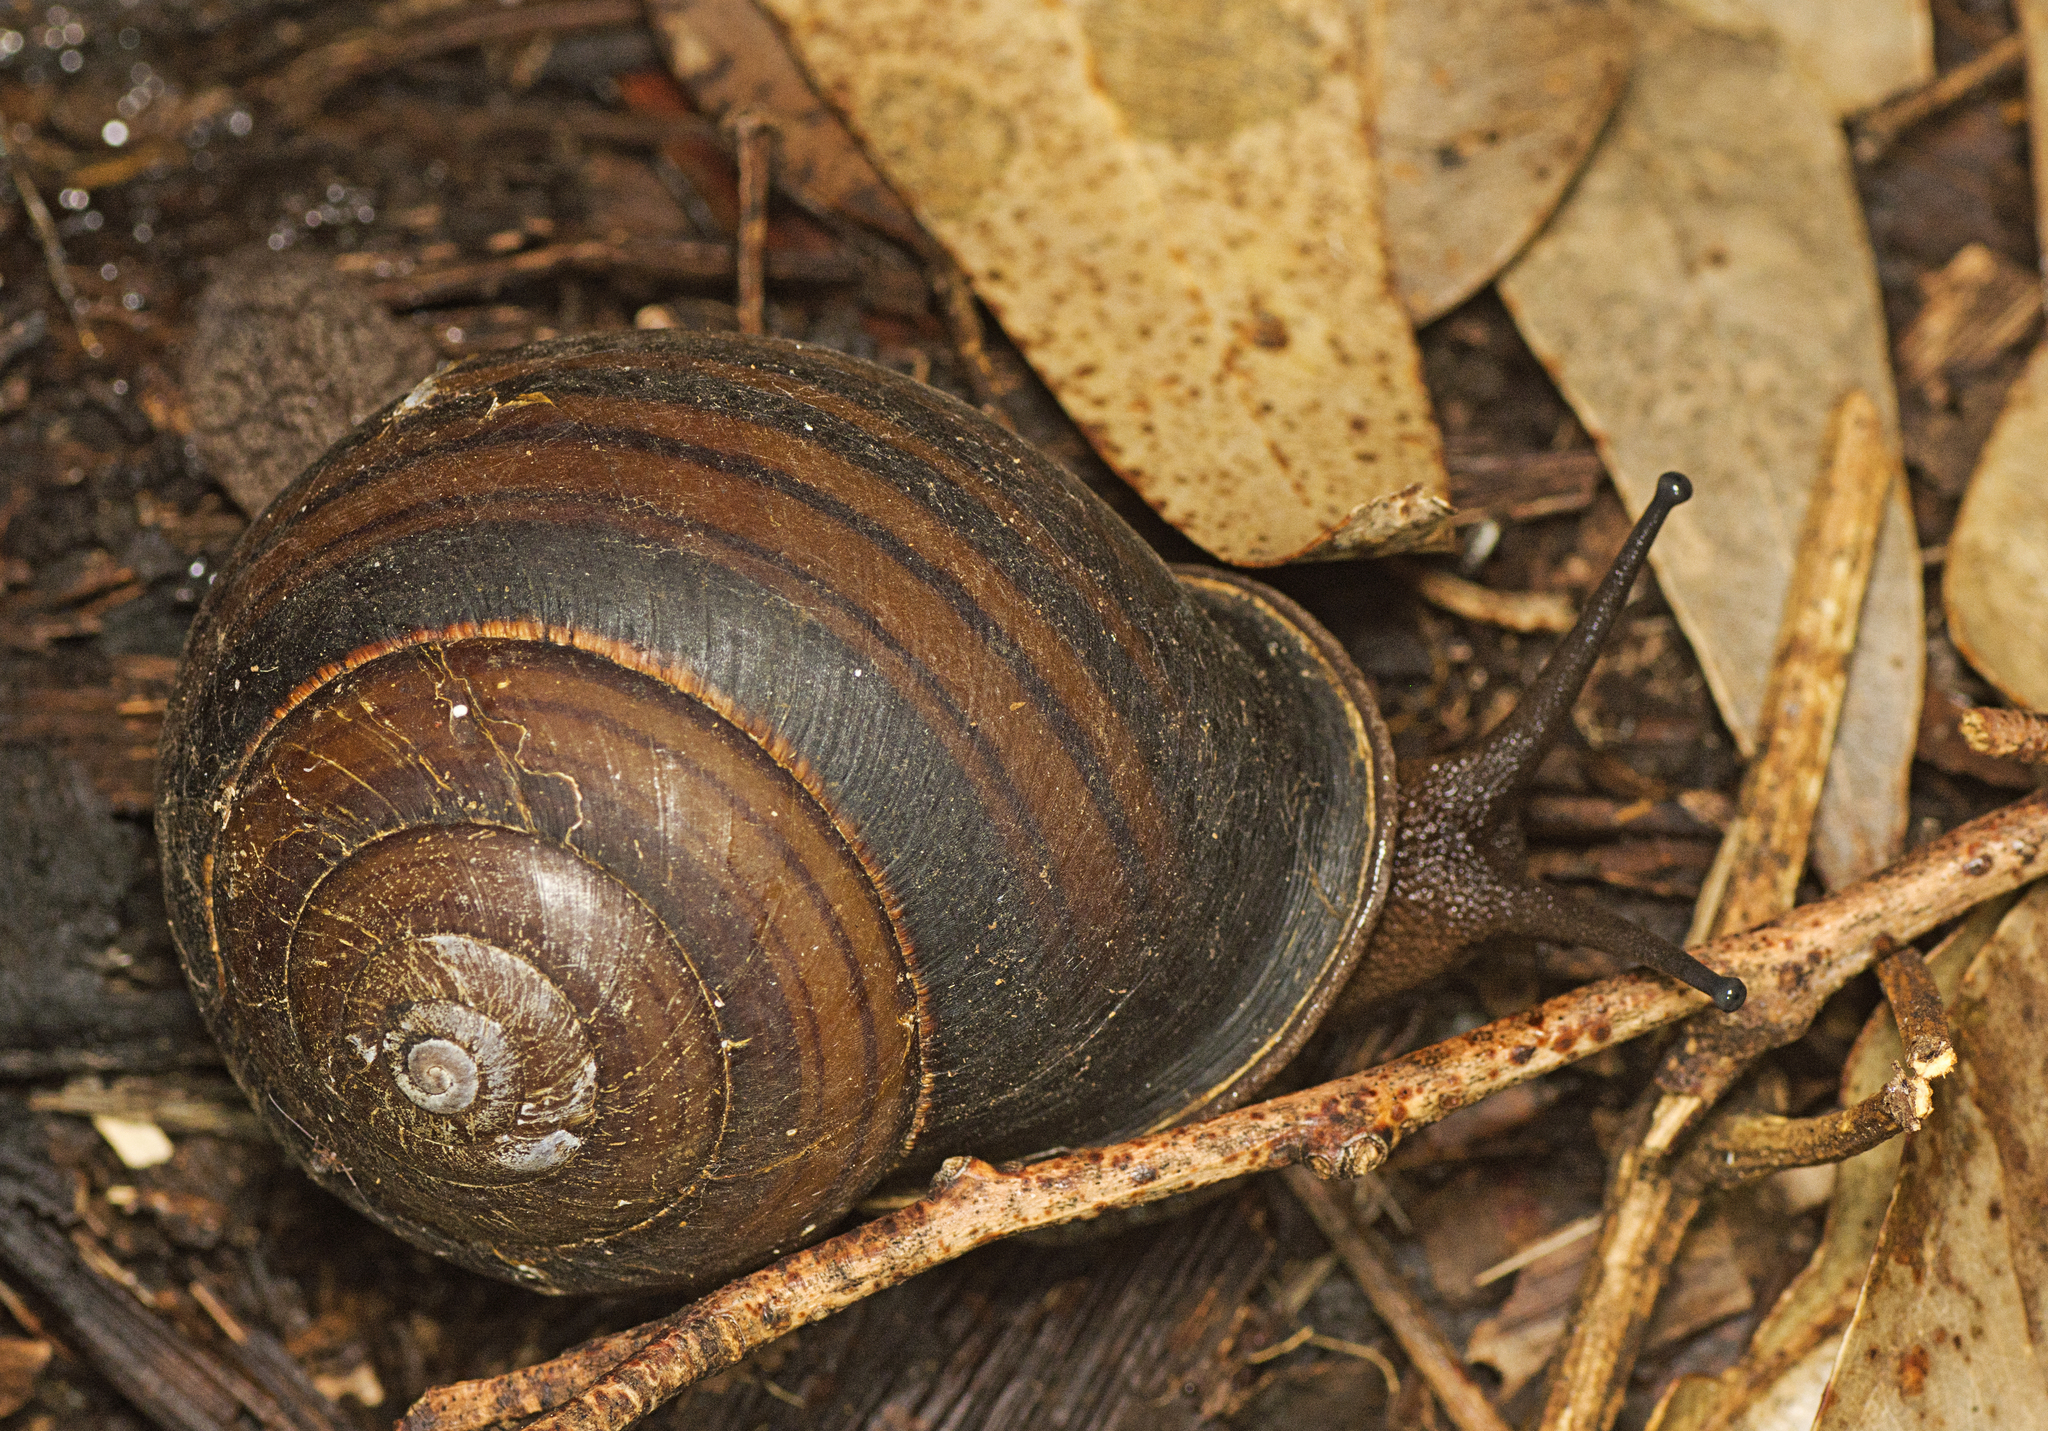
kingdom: Animalia
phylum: Mollusca
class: Gastropoda
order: Stylommatophora
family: Camaenidae
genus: Sphaerospira
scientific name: Sphaerospira fraseri
